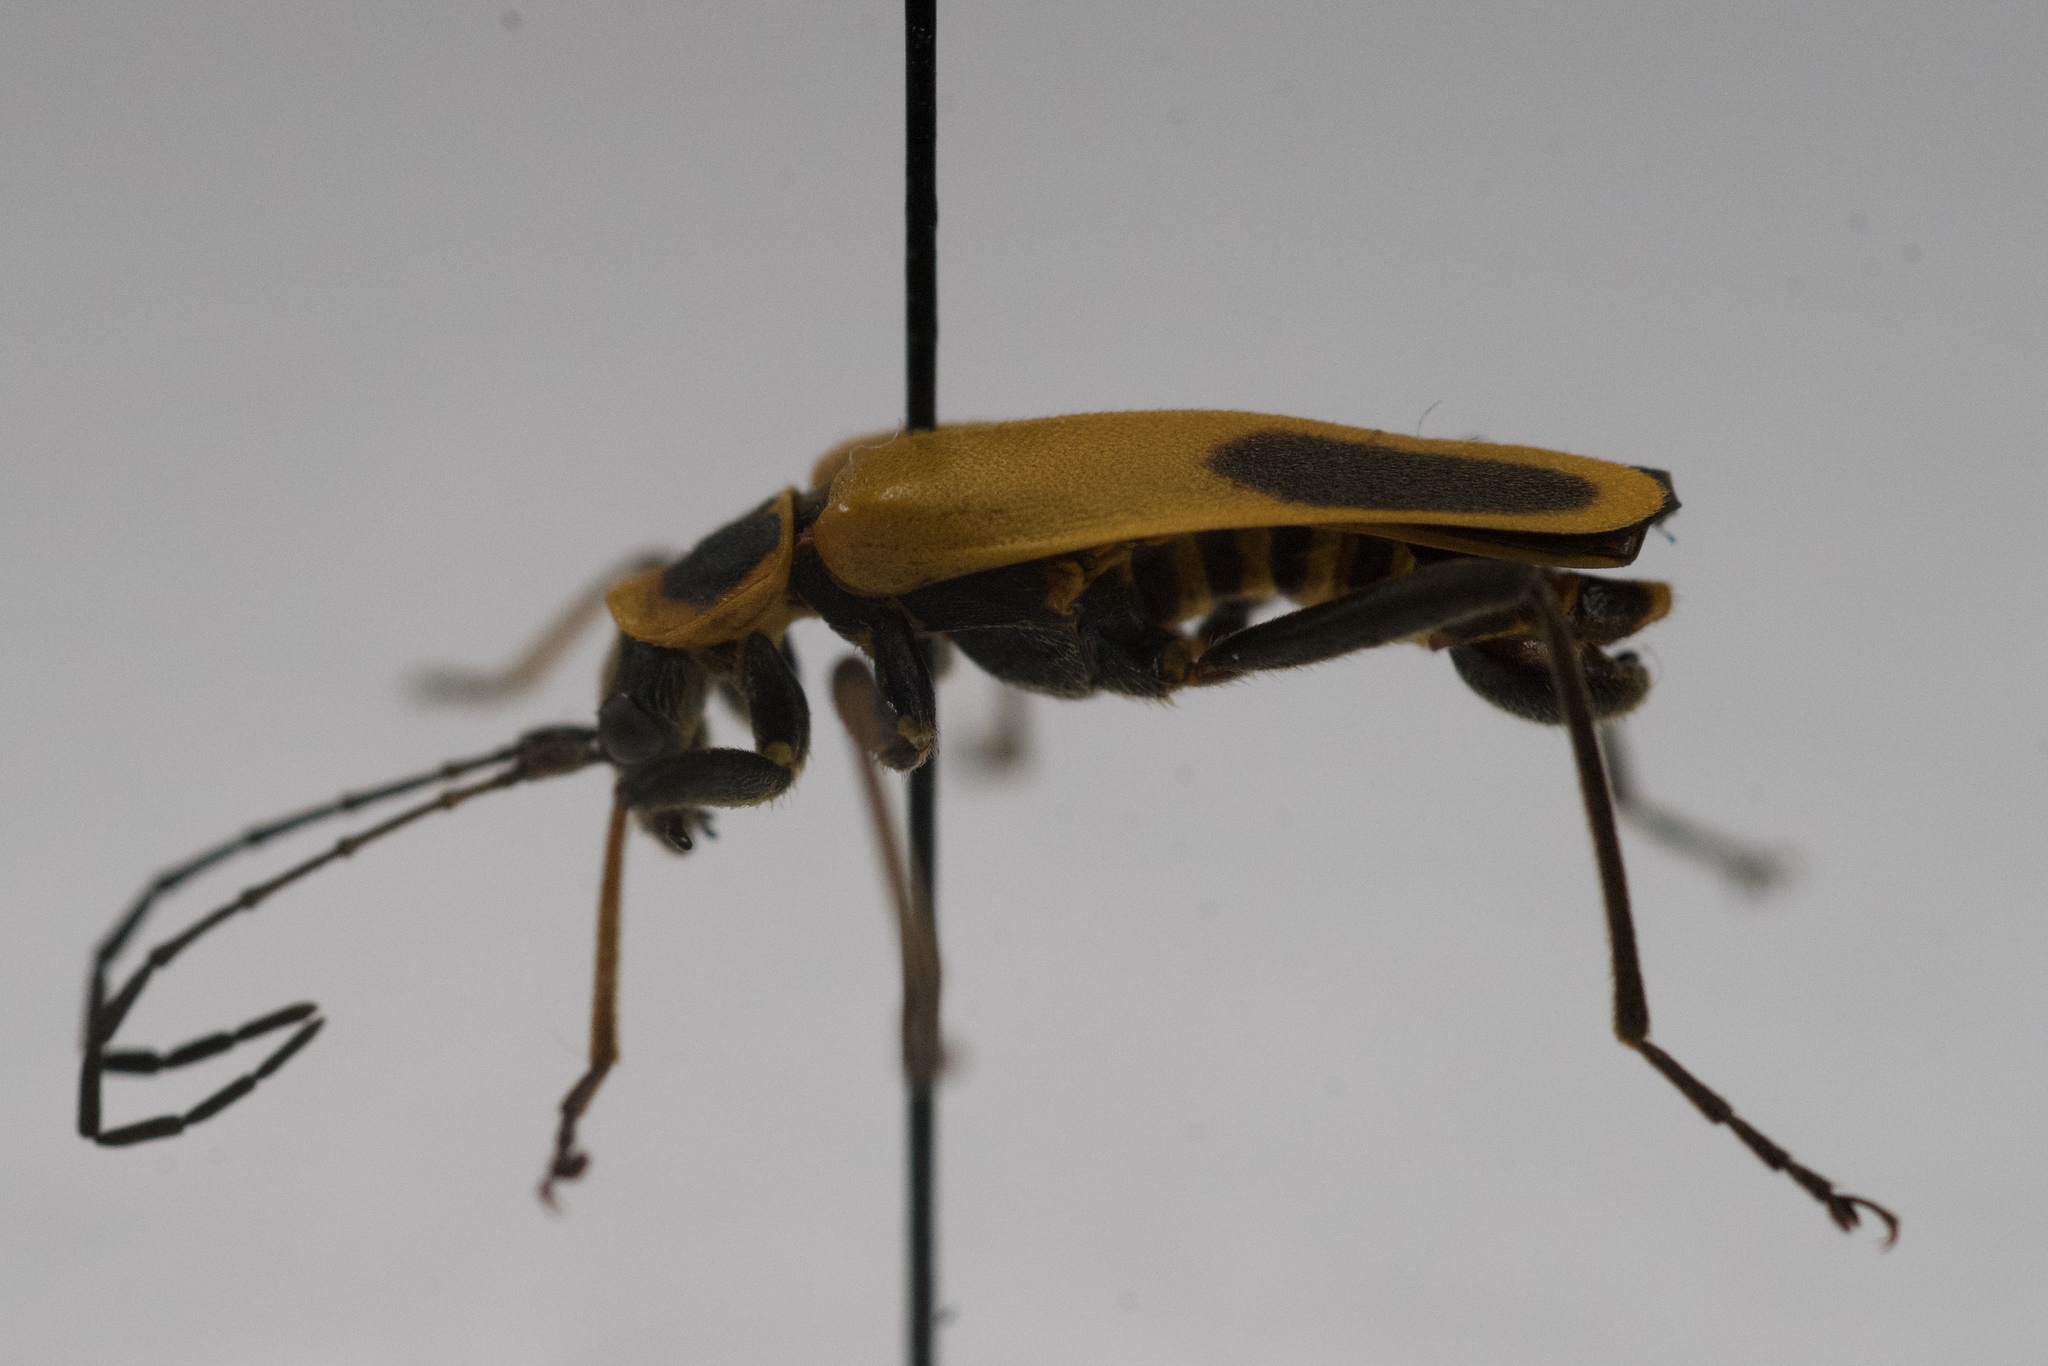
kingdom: Animalia
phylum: Arthropoda
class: Insecta
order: Coleoptera
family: Cantharidae
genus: Chauliognathus
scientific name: Chauliognathus pensylvanicus
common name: Goldenrod soldier beetle
